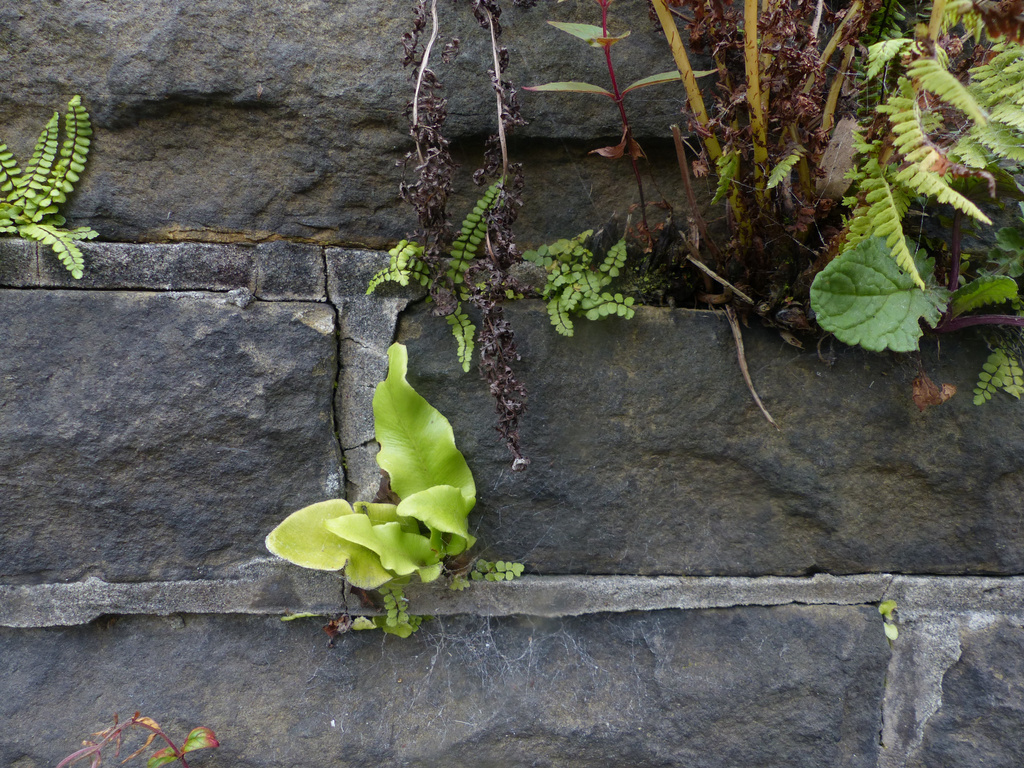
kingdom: Plantae
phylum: Tracheophyta
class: Polypodiopsida
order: Polypodiales
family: Aspleniaceae
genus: Asplenium
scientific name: Asplenium scolopendrium
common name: Hart's-tongue fern
